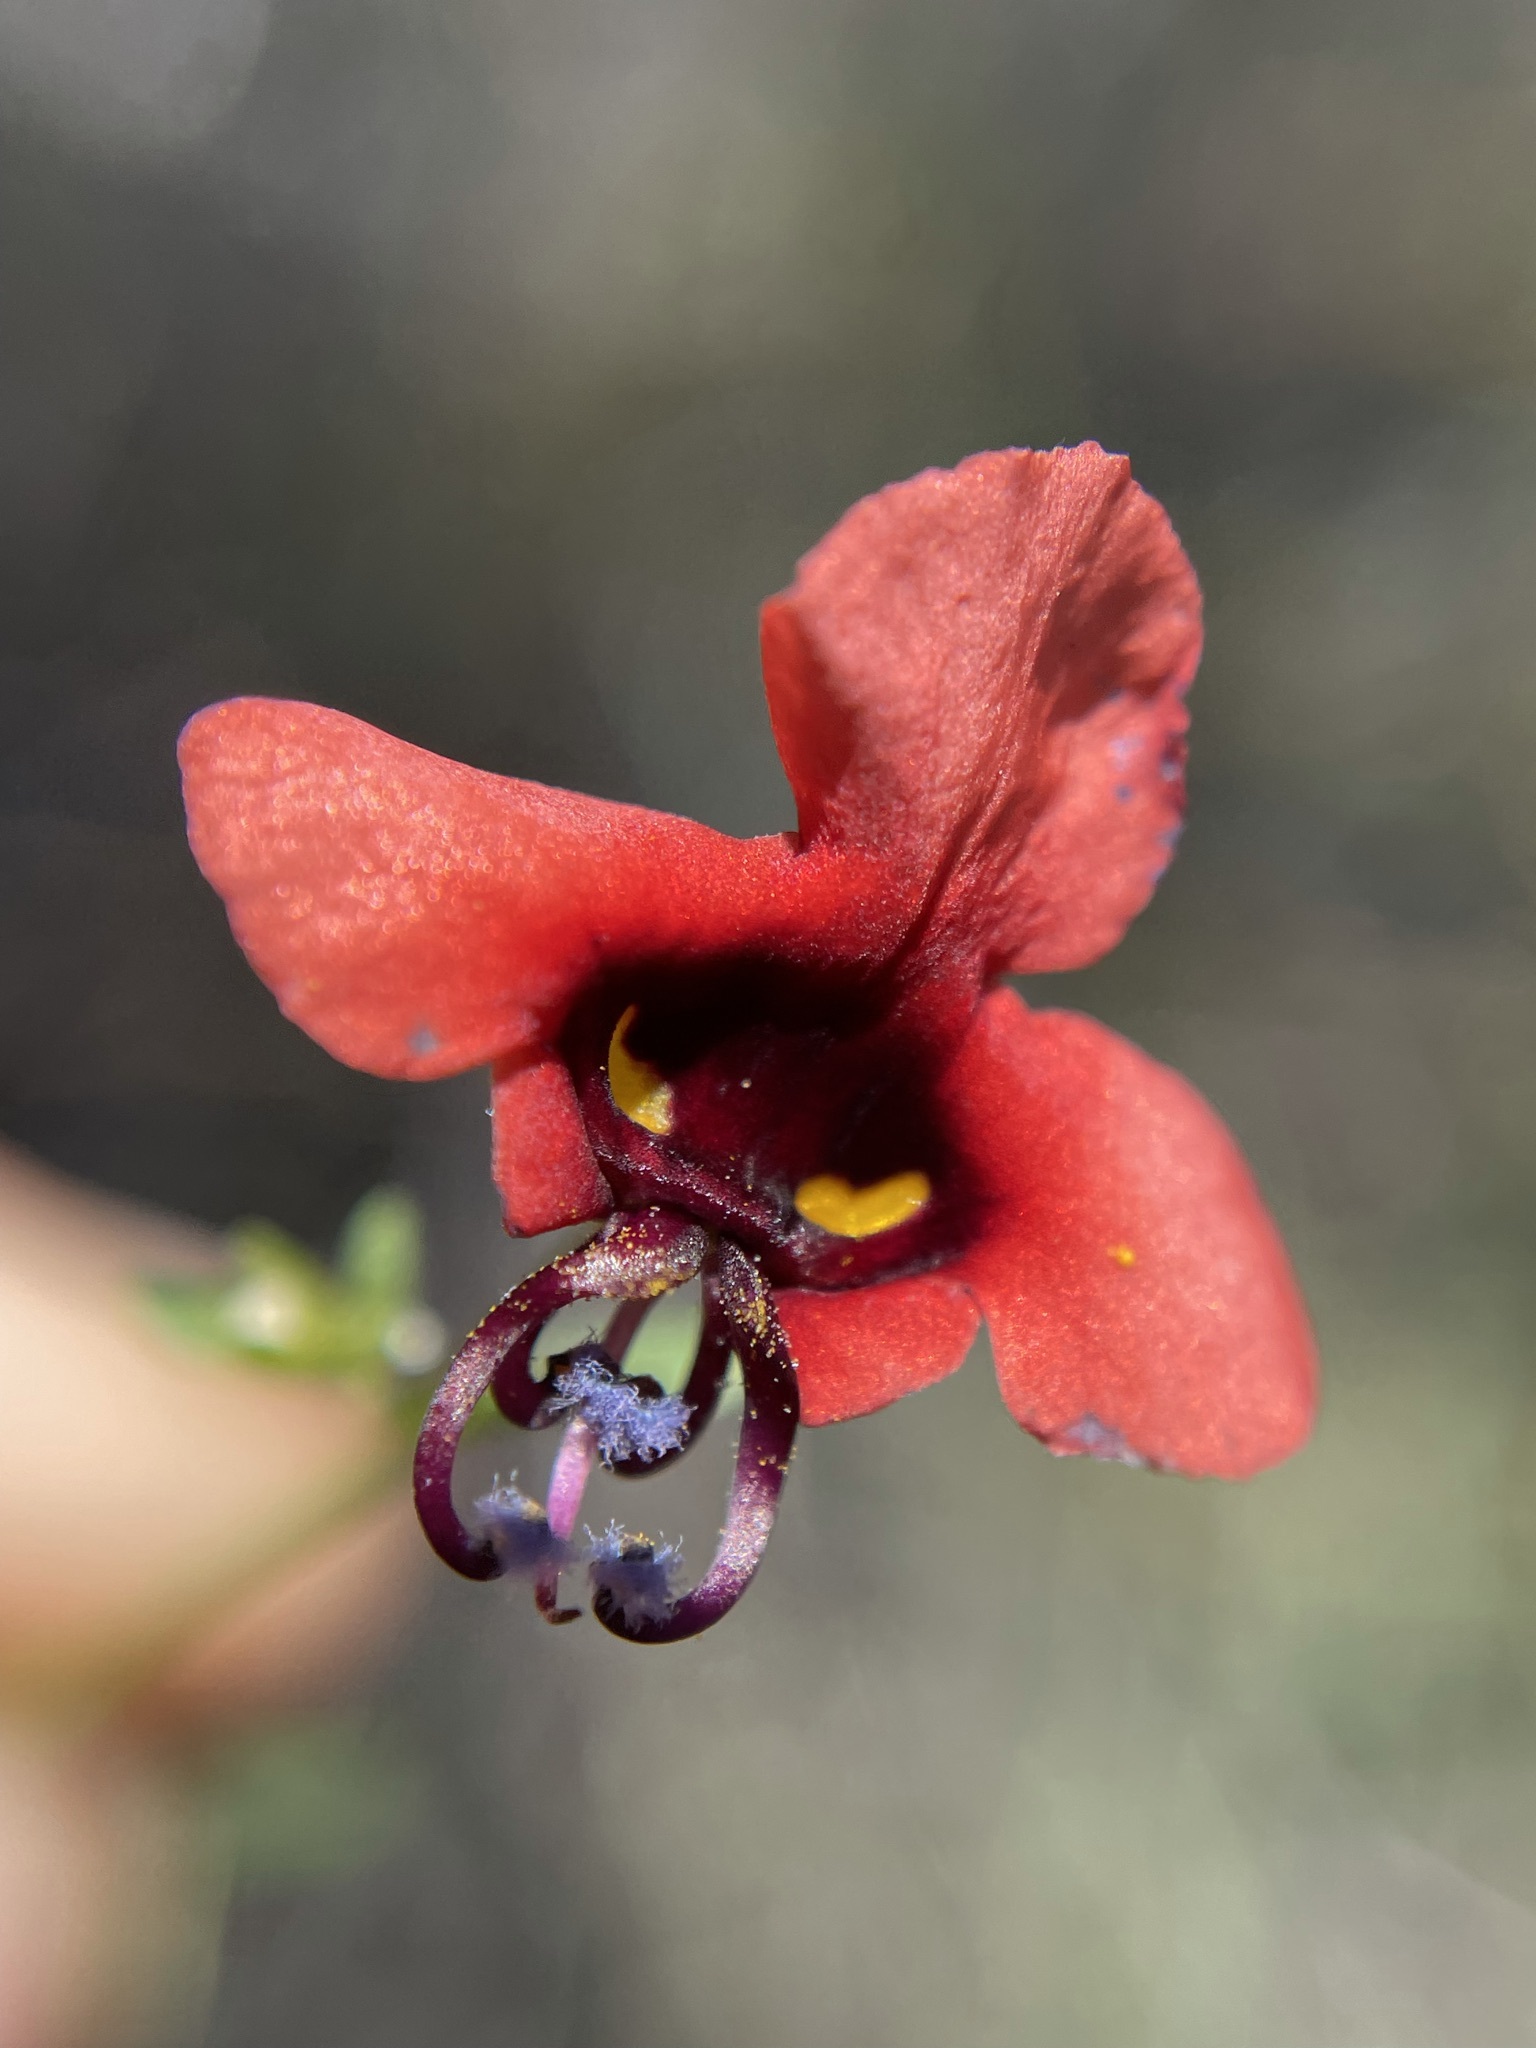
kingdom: Plantae
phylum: Tracheophyta
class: Magnoliopsida
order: Lamiales
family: Scrophulariaceae
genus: Alonsoa
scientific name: Alonsoa unilabiata
